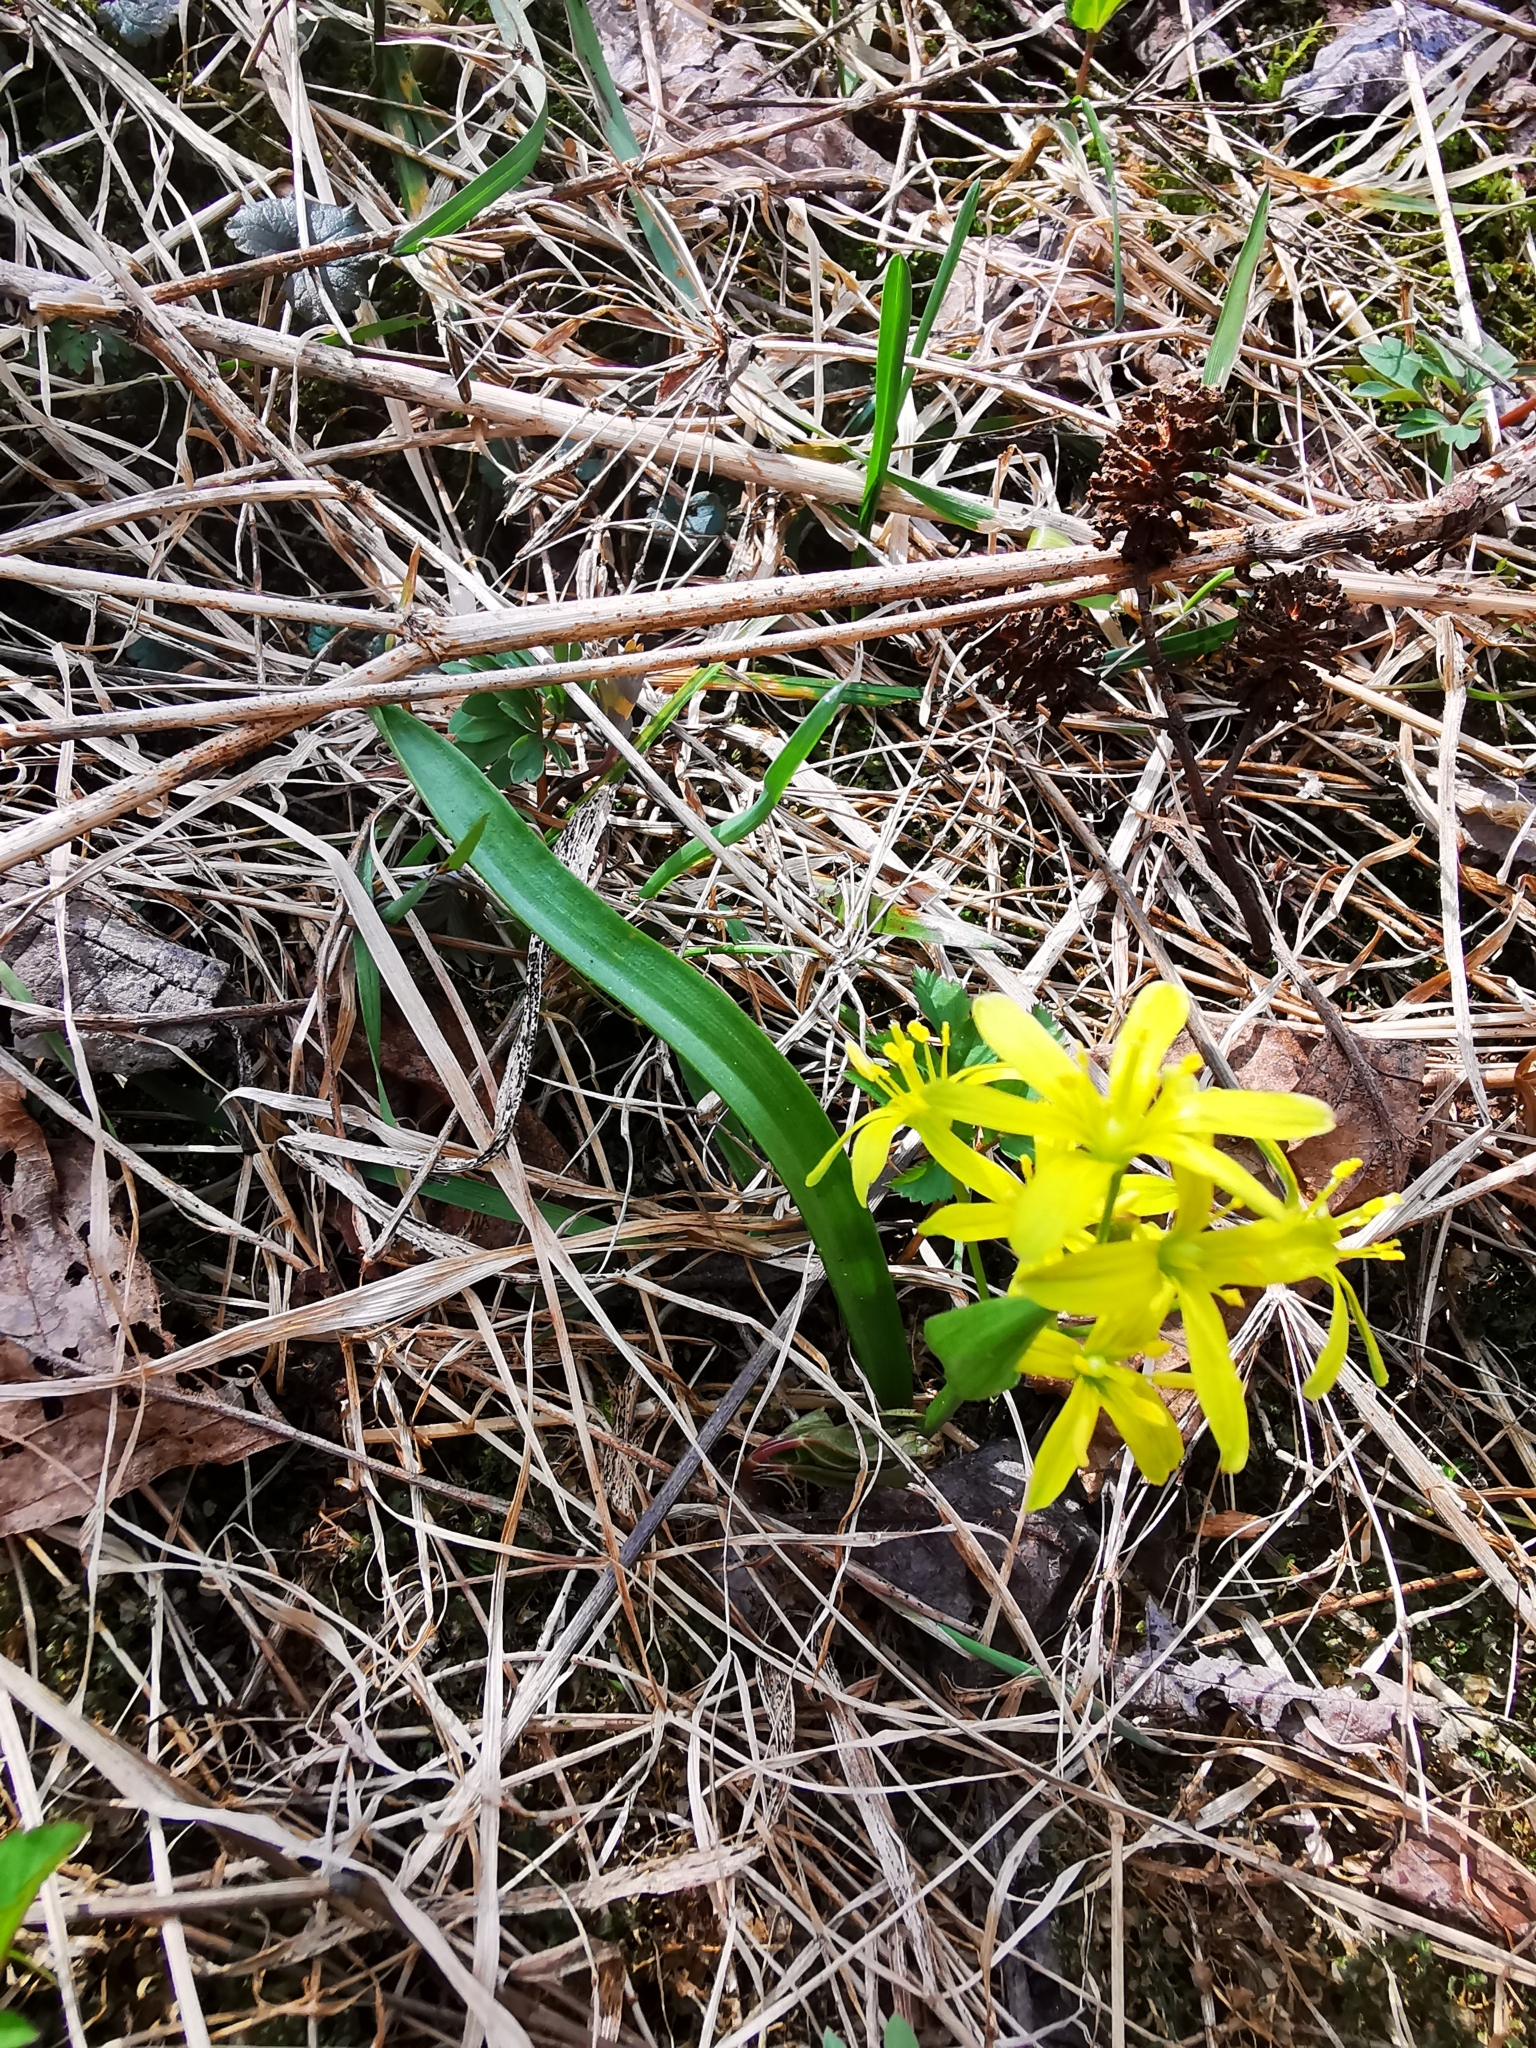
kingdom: Plantae
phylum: Tracheophyta
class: Liliopsida
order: Liliales
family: Liliaceae
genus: Gagea
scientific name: Gagea lutea
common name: Yellow star-of-bethlehem
